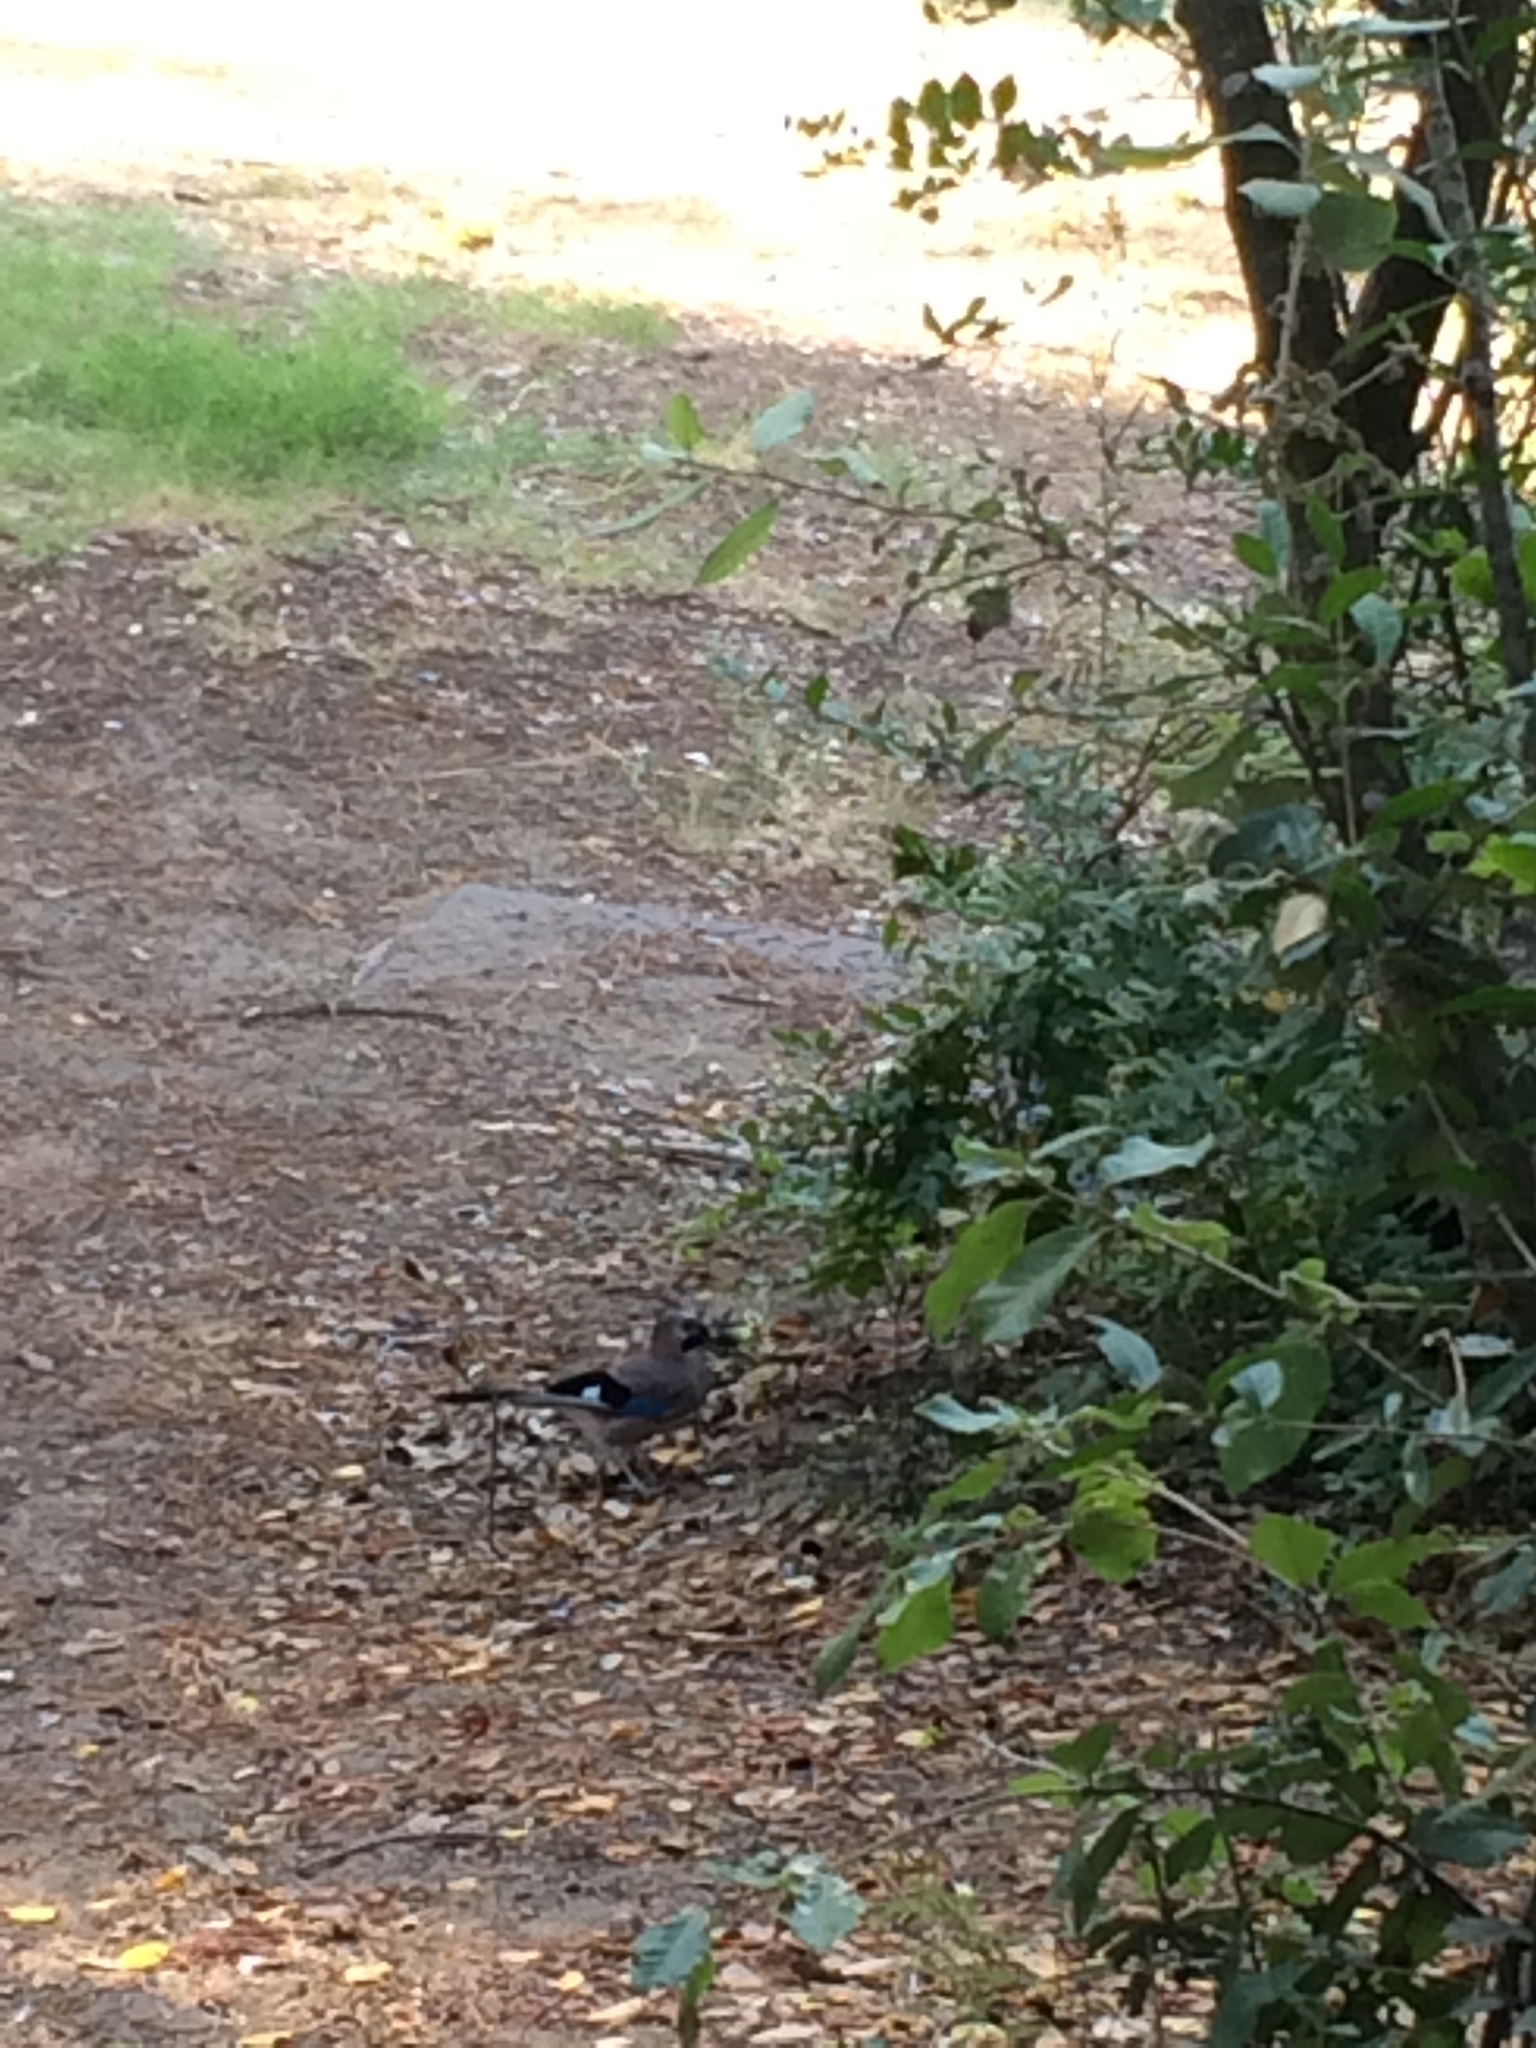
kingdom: Animalia
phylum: Chordata
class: Aves
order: Passeriformes
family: Corvidae
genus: Garrulus
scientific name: Garrulus glandarius
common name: Eurasian jay
